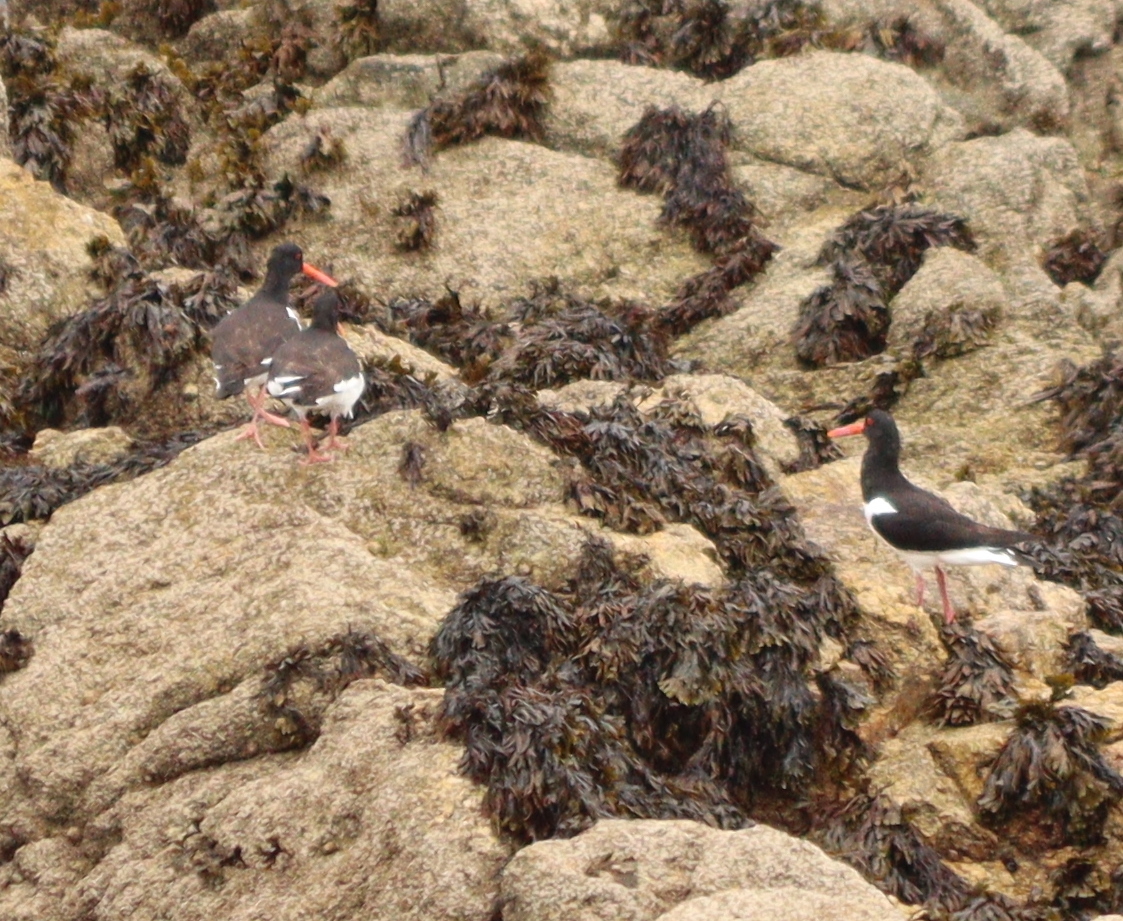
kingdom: Animalia
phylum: Chordata
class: Aves
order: Charadriiformes
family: Haematopodidae
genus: Haematopus
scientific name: Haematopus ostralegus
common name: Eurasian oystercatcher
